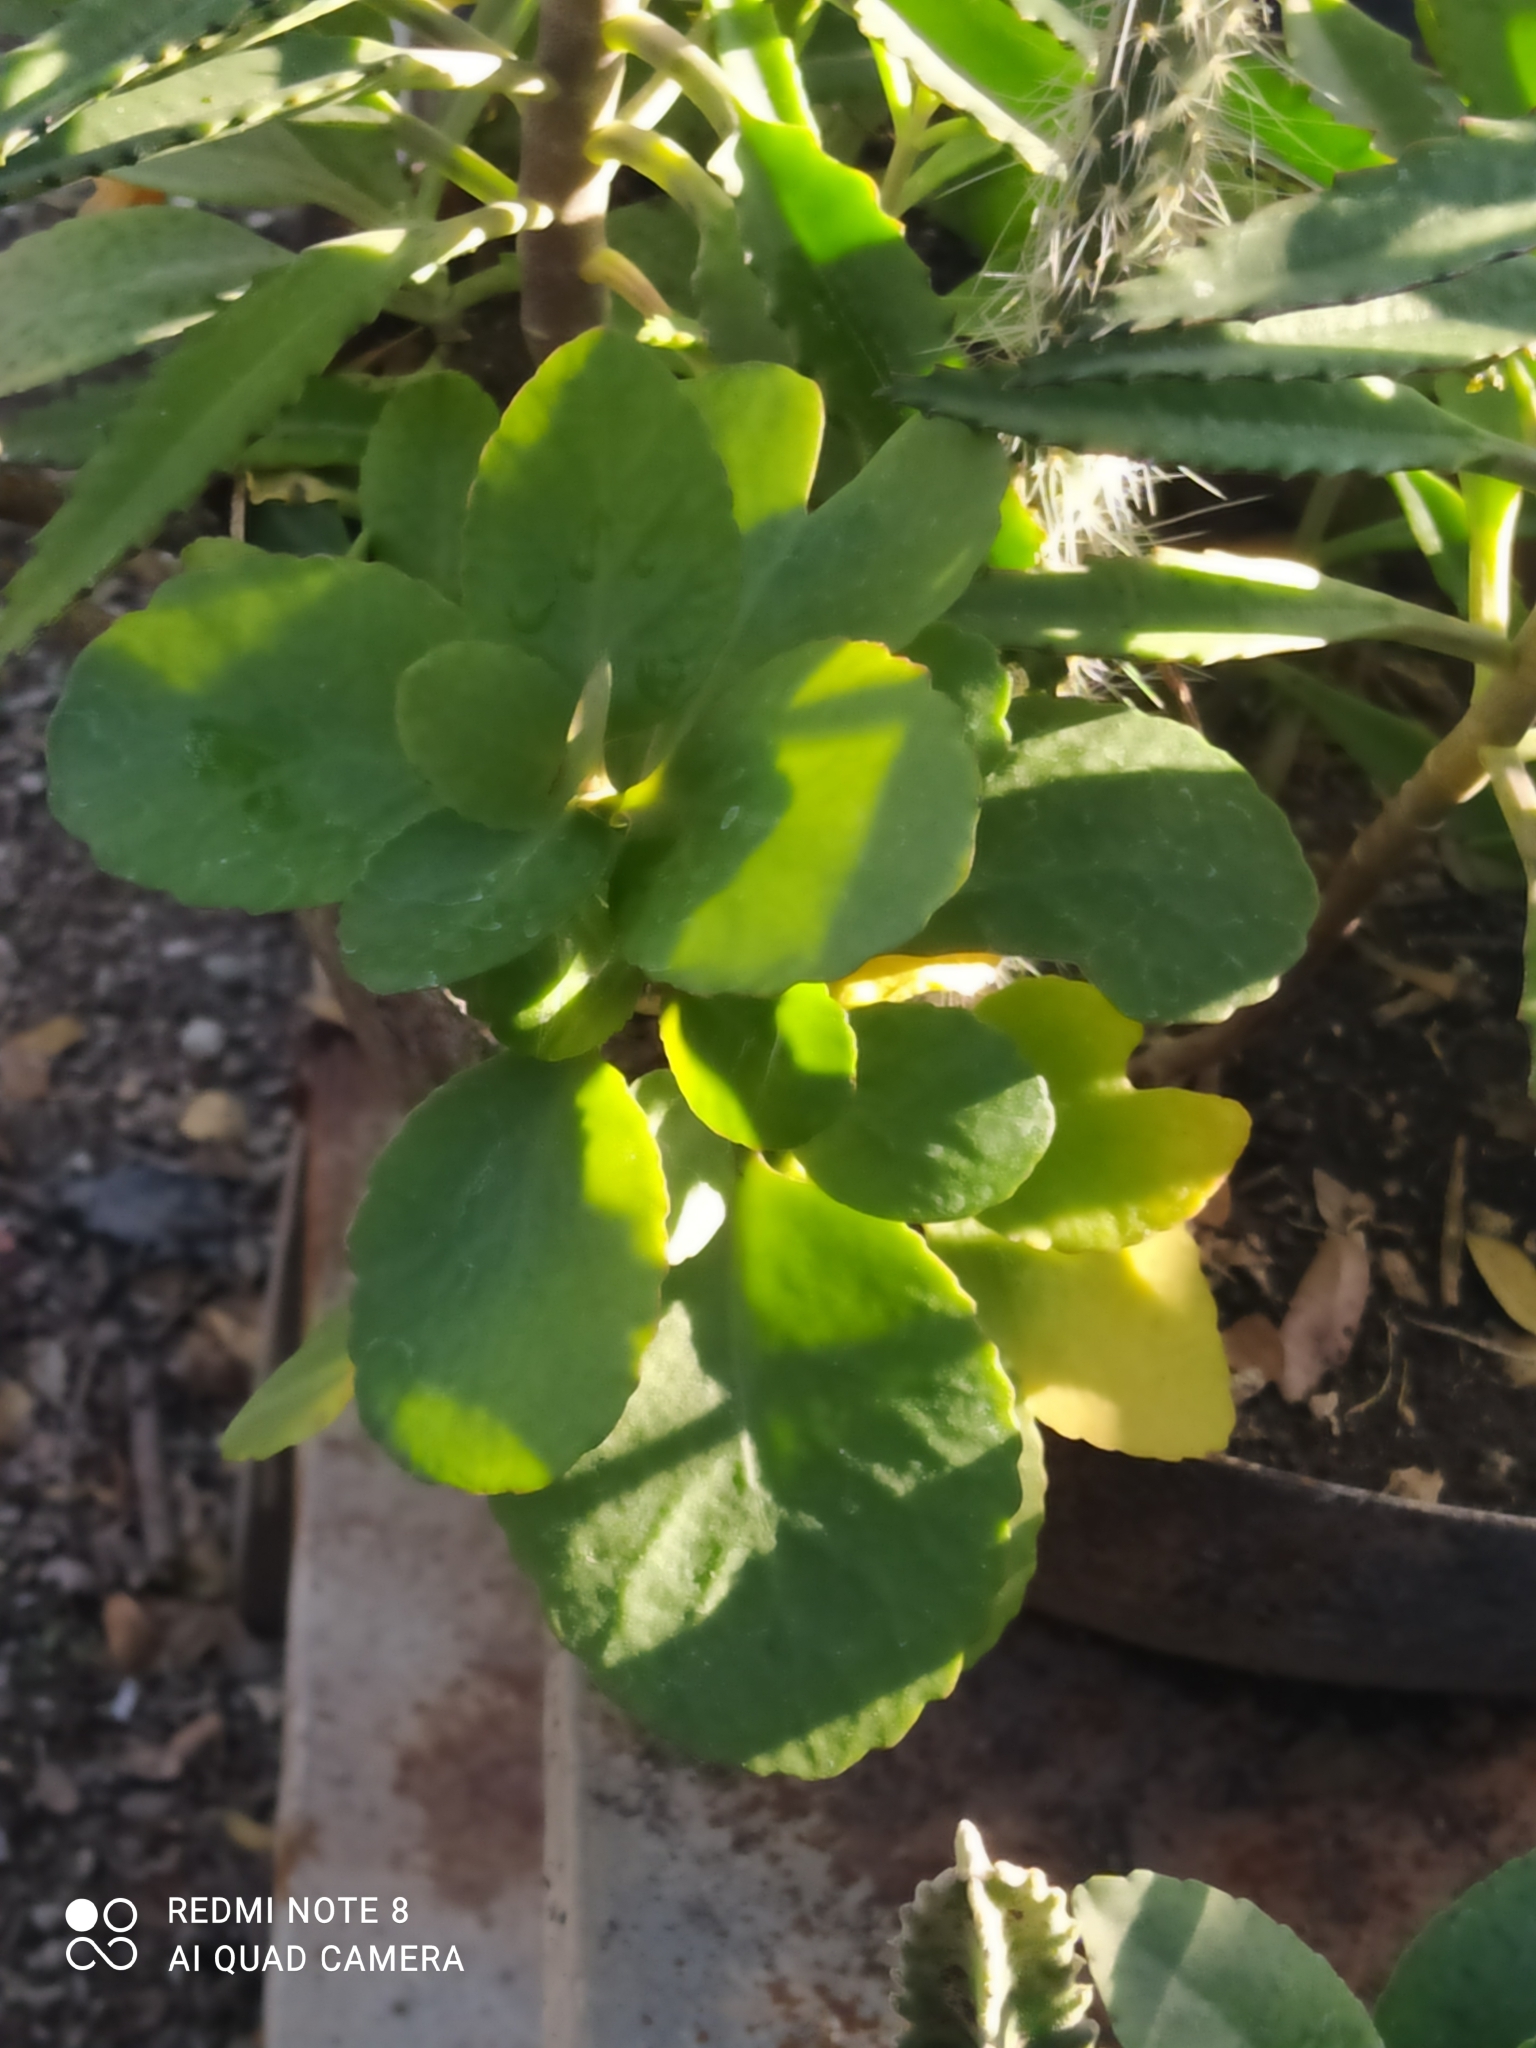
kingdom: Plantae
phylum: Tracheophyta
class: Magnoliopsida
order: Saxifragales
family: Crassulaceae
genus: Kalanchoe
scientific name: Kalanchoe densiflora
